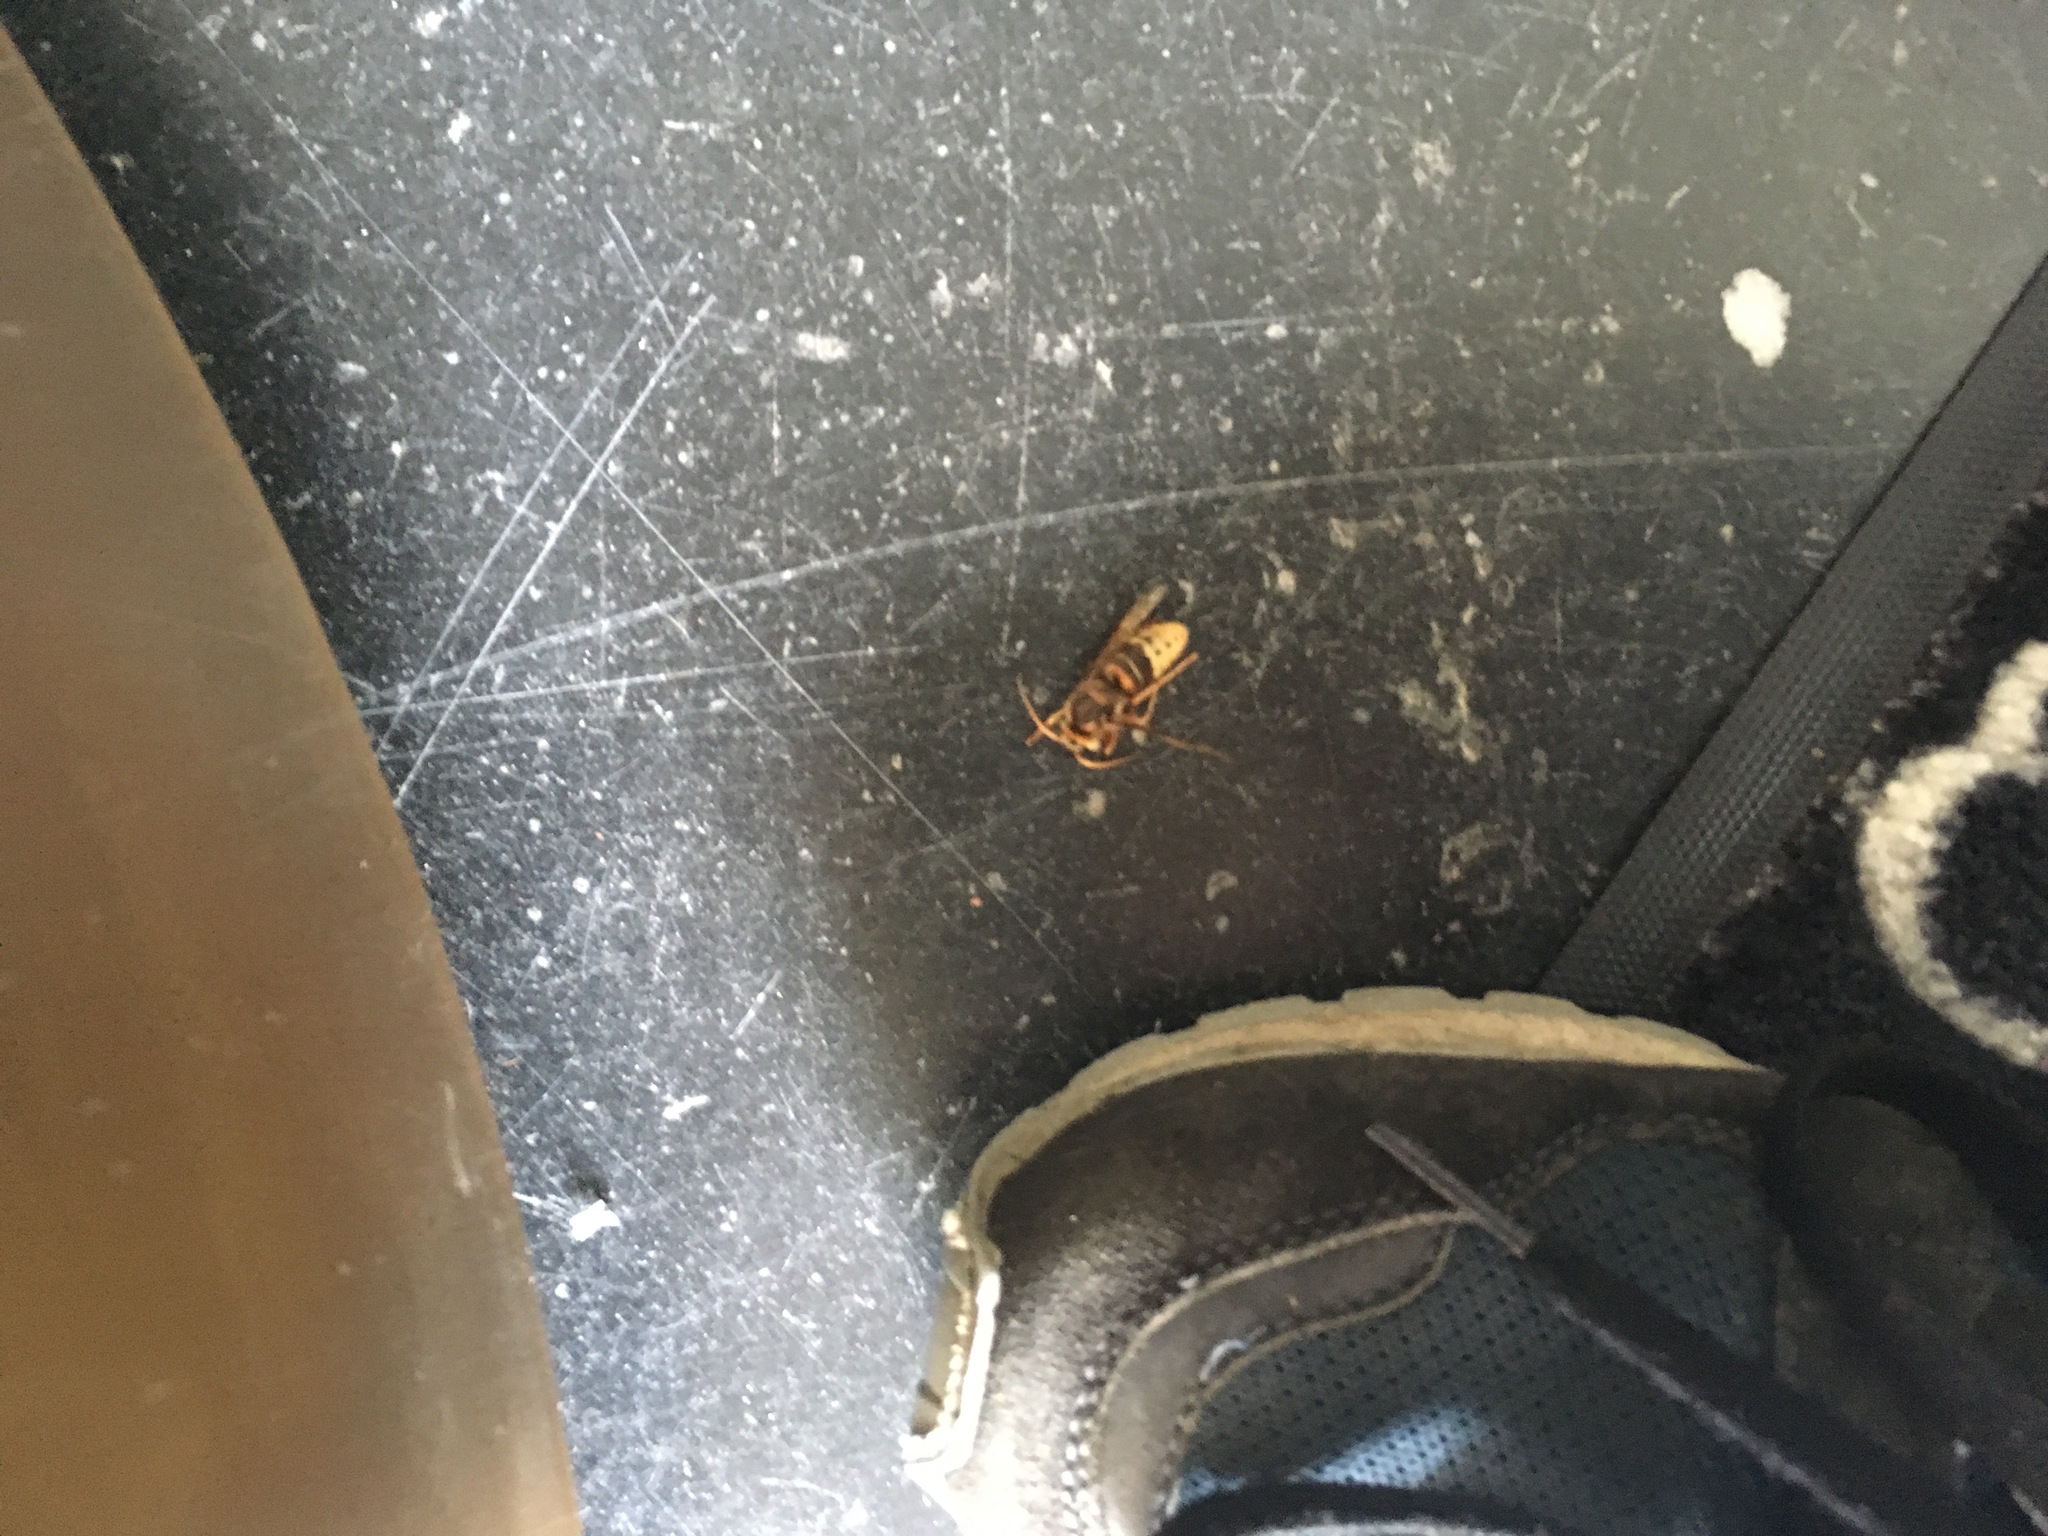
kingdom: Animalia
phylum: Arthropoda
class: Insecta
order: Hymenoptera
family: Vespidae
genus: Vespa
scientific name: Vespa crabro
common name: Hornet
